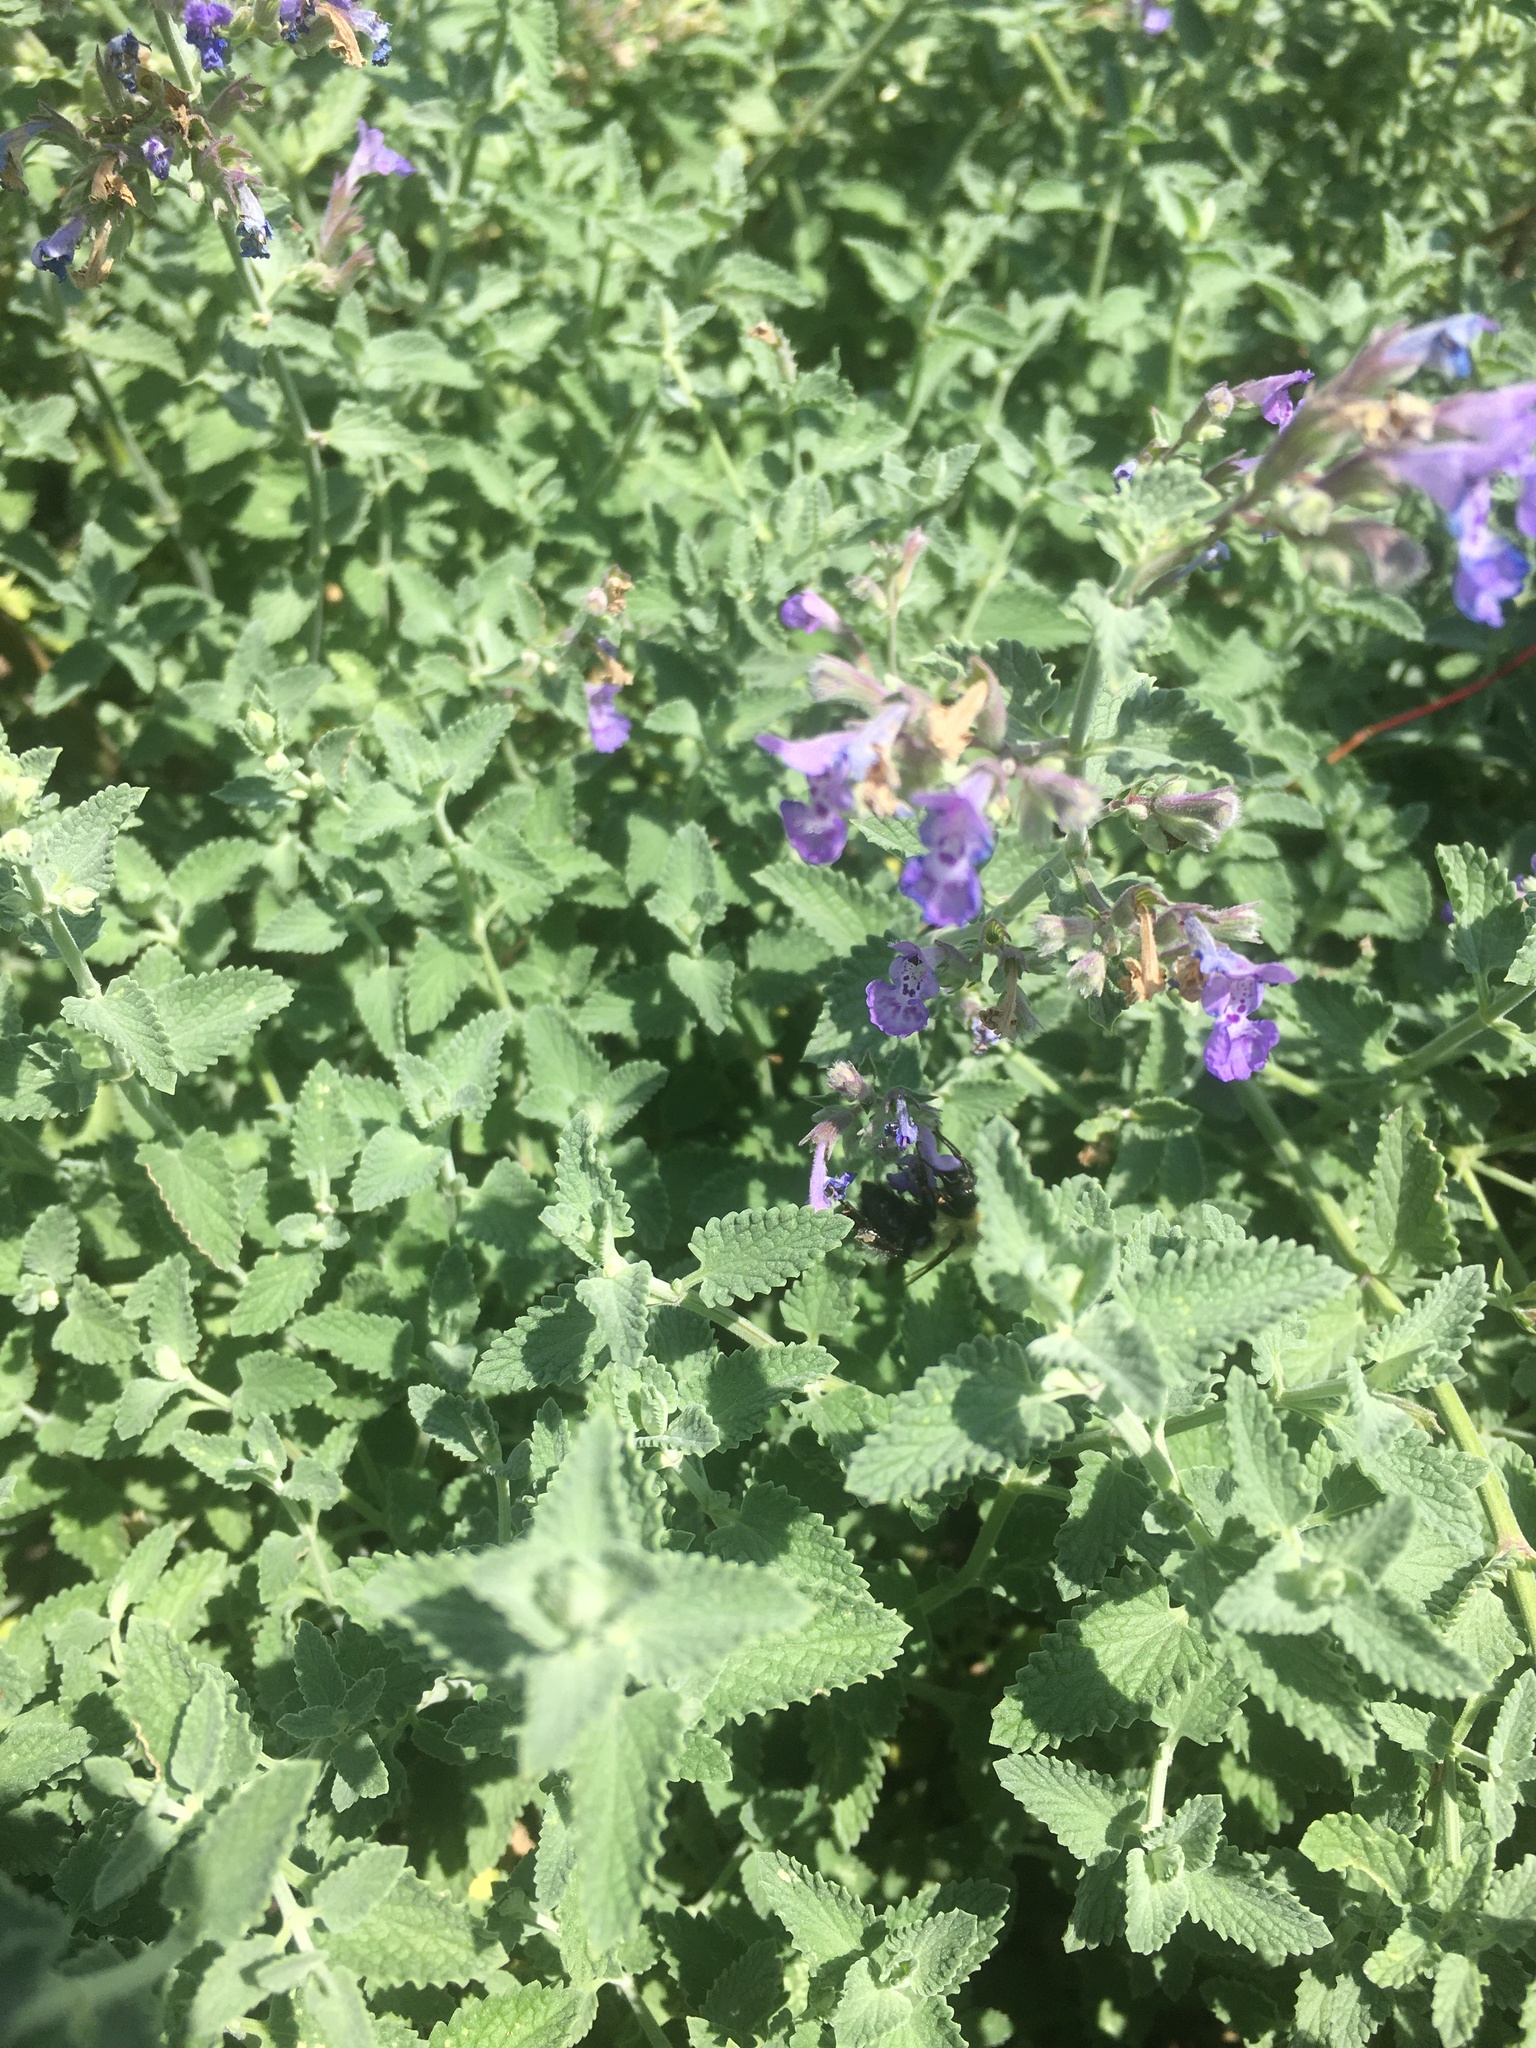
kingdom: Animalia
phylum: Arthropoda
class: Insecta
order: Hymenoptera
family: Apidae
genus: Bombus
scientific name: Bombus impatiens
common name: Common eastern bumble bee
